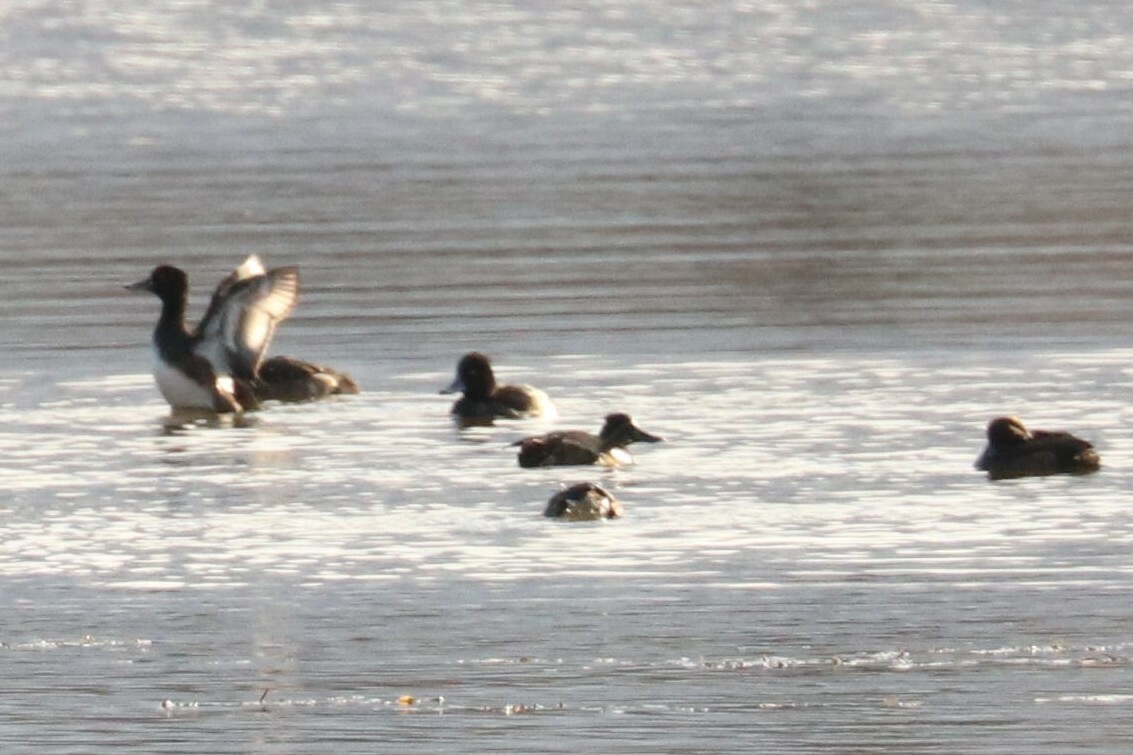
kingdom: Animalia
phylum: Chordata
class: Aves
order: Anseriformes
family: Anatidae
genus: Aythya
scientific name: Aythya fuligula
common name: Tufted duck
